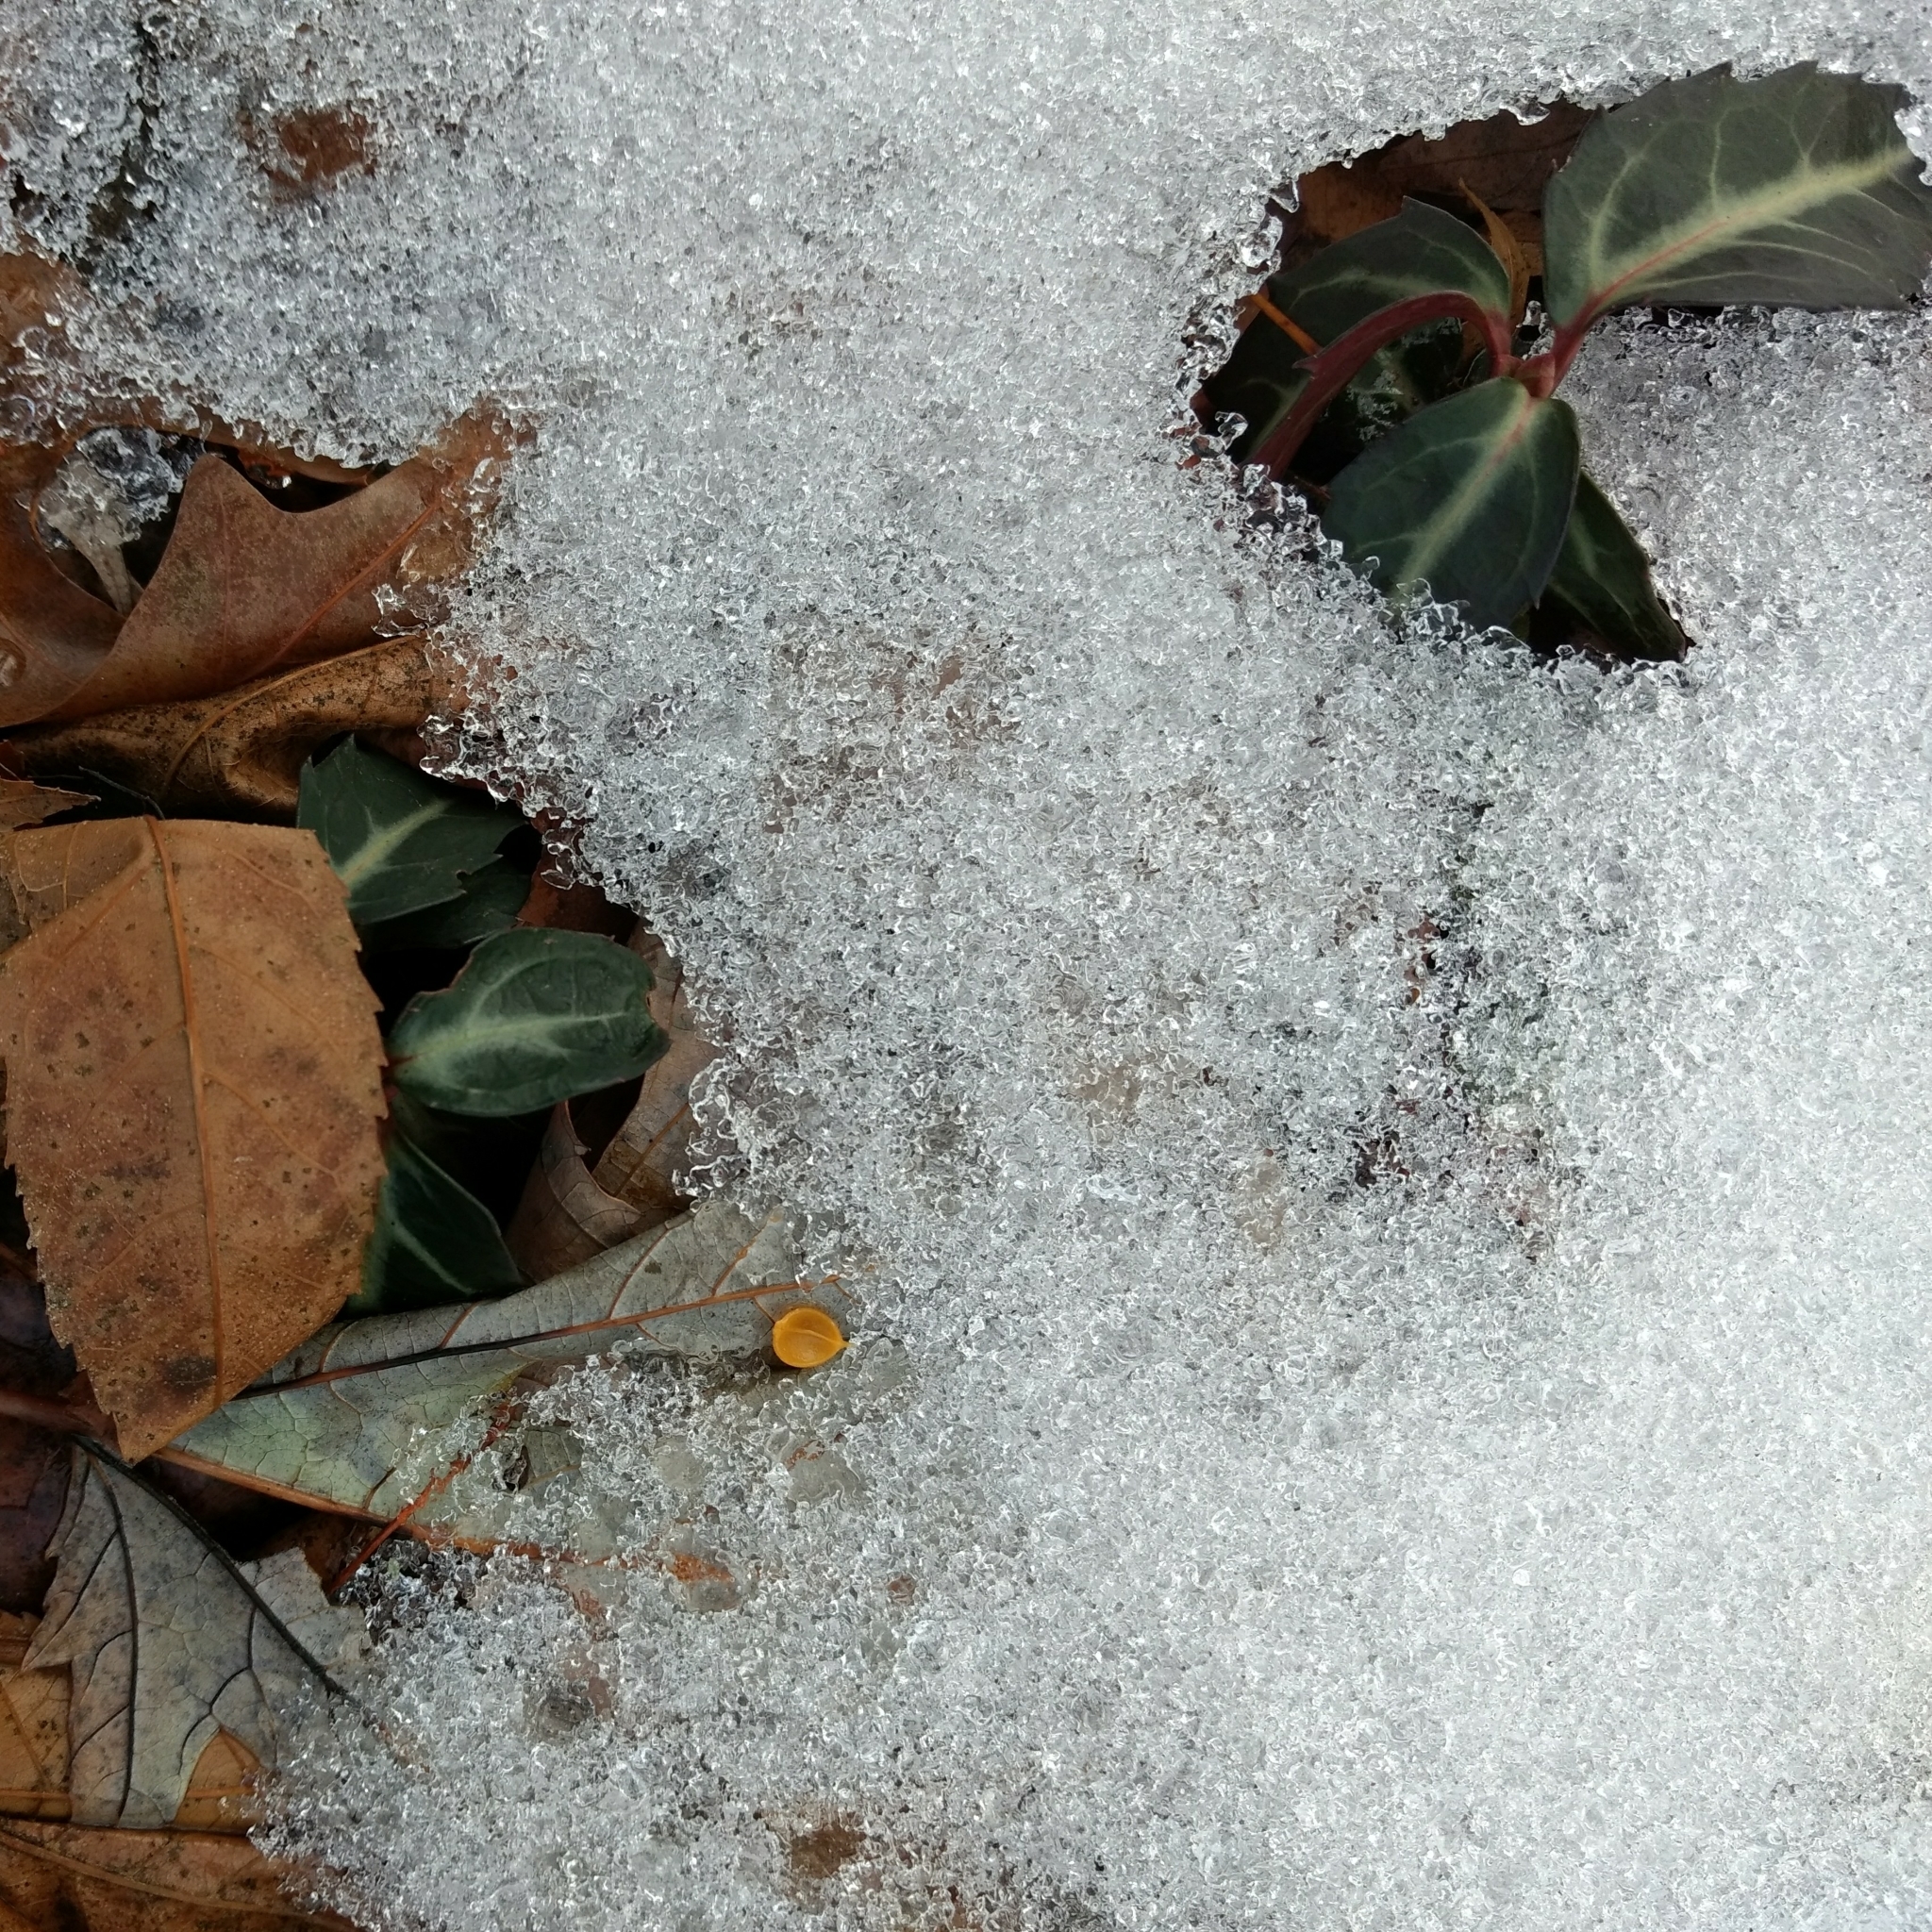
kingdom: Plantae
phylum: Tracheophyta
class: Magnoliopsida
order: Ericales
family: Ericaceae
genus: Chimaphila
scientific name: Chimaphila maculata
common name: Spotted pipsissewa
